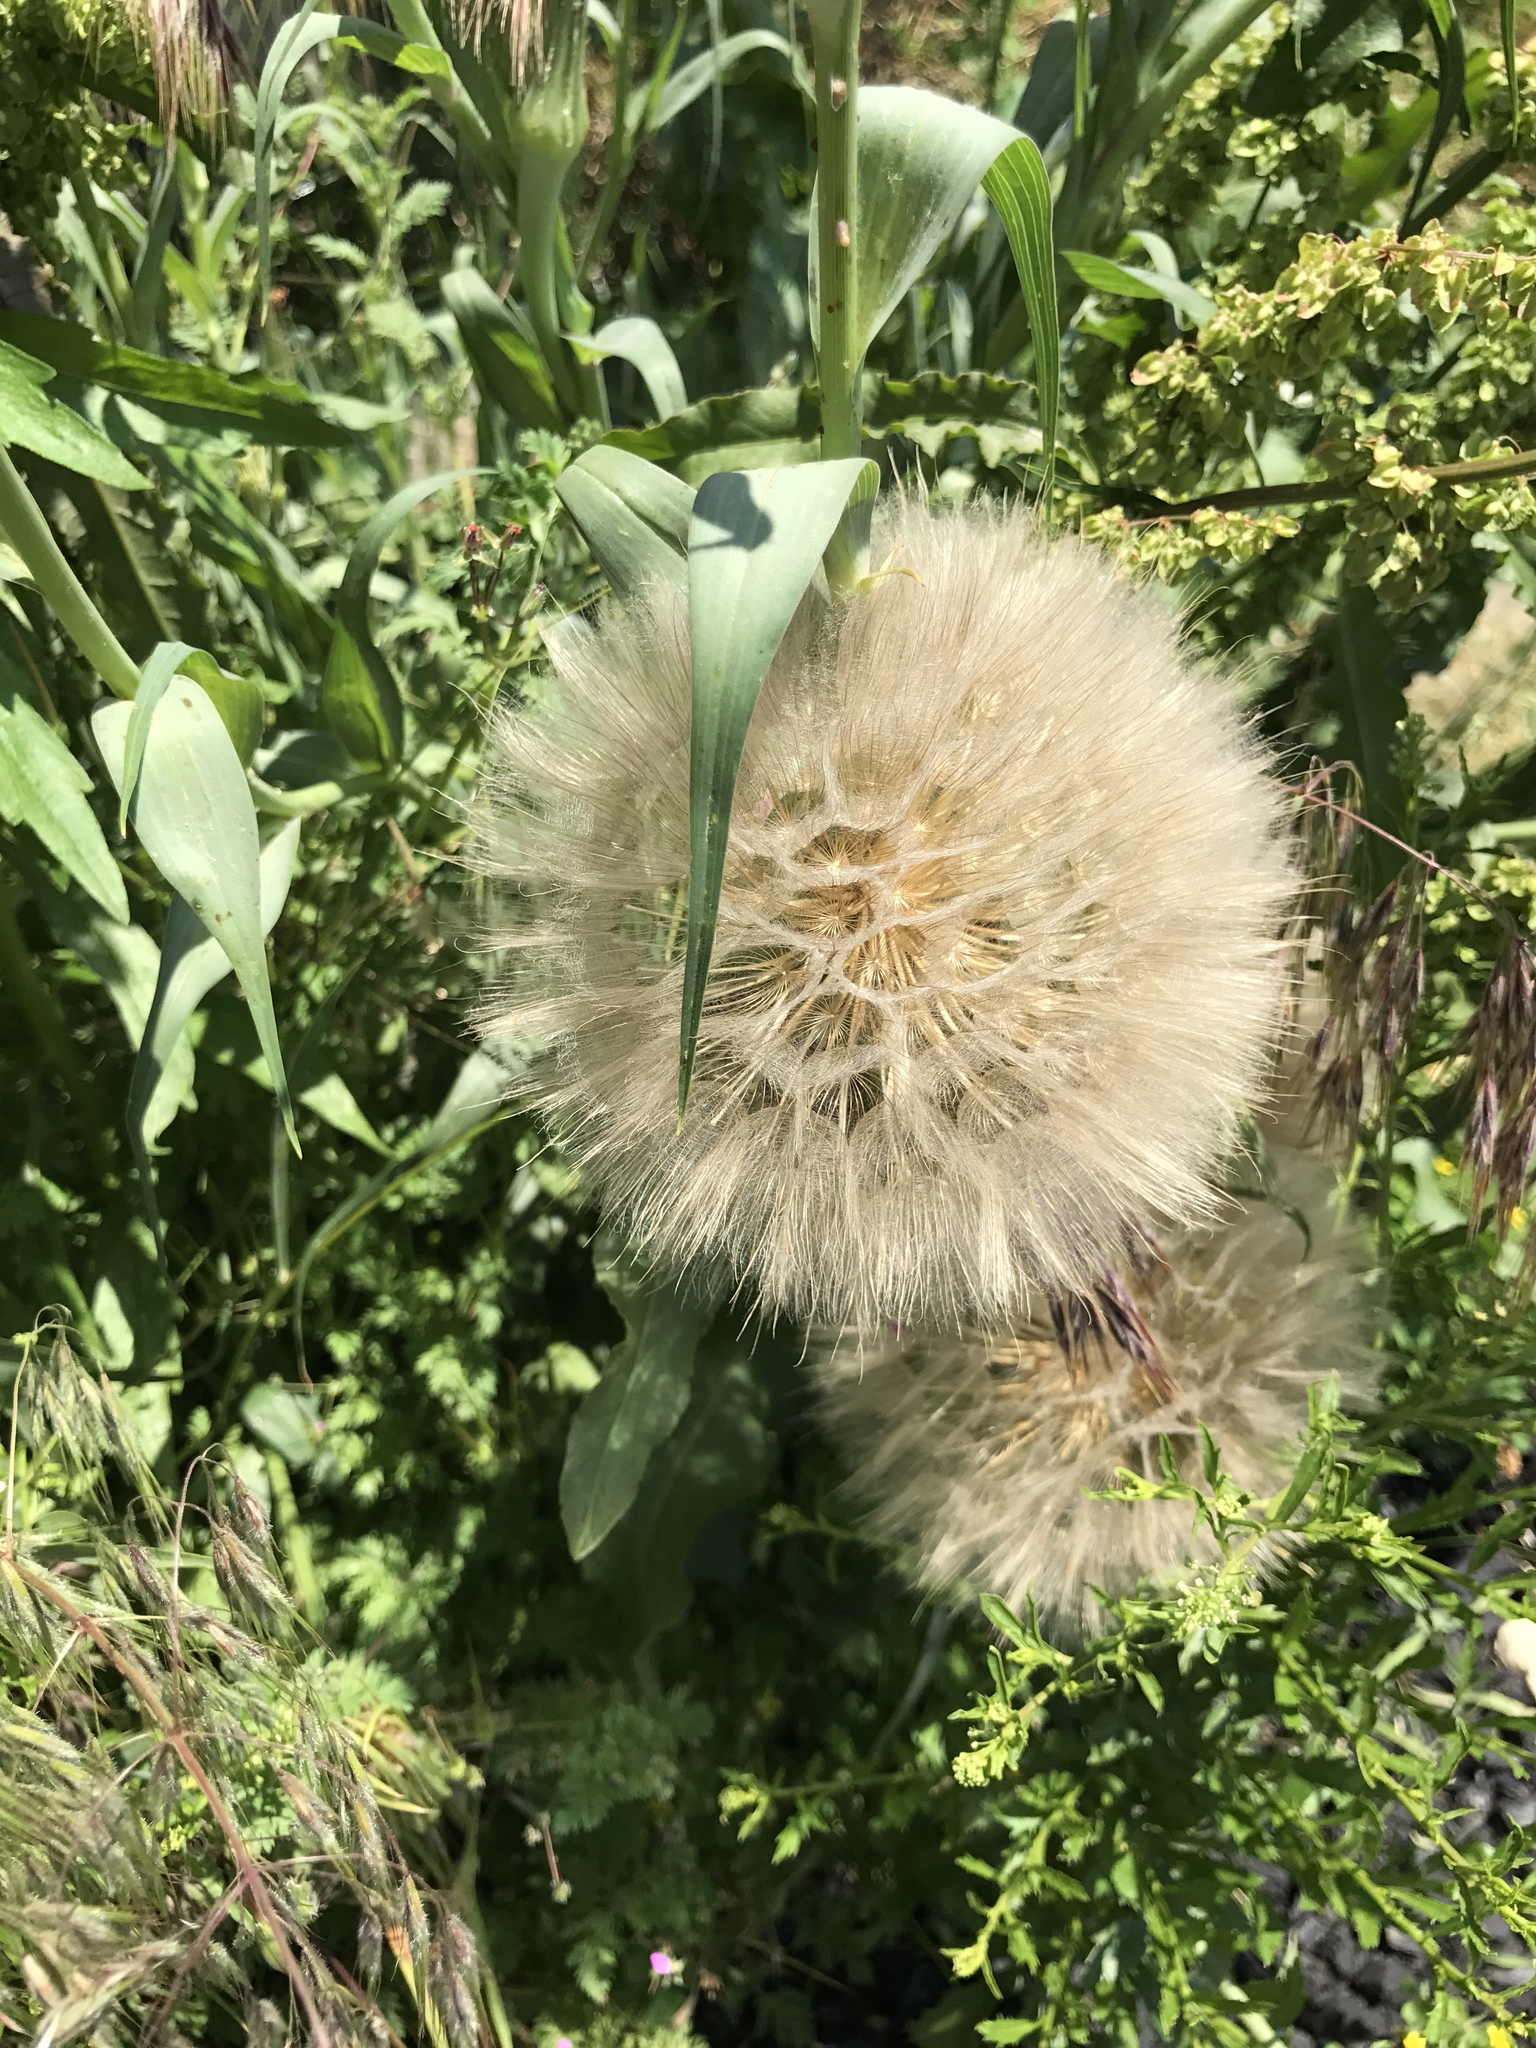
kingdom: Plantae
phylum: Tracheophyta
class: Magnoliopsida
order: Asterales
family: Asteraceae
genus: Tragopogon
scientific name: Tragopogon dubius
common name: Yellow salsify
